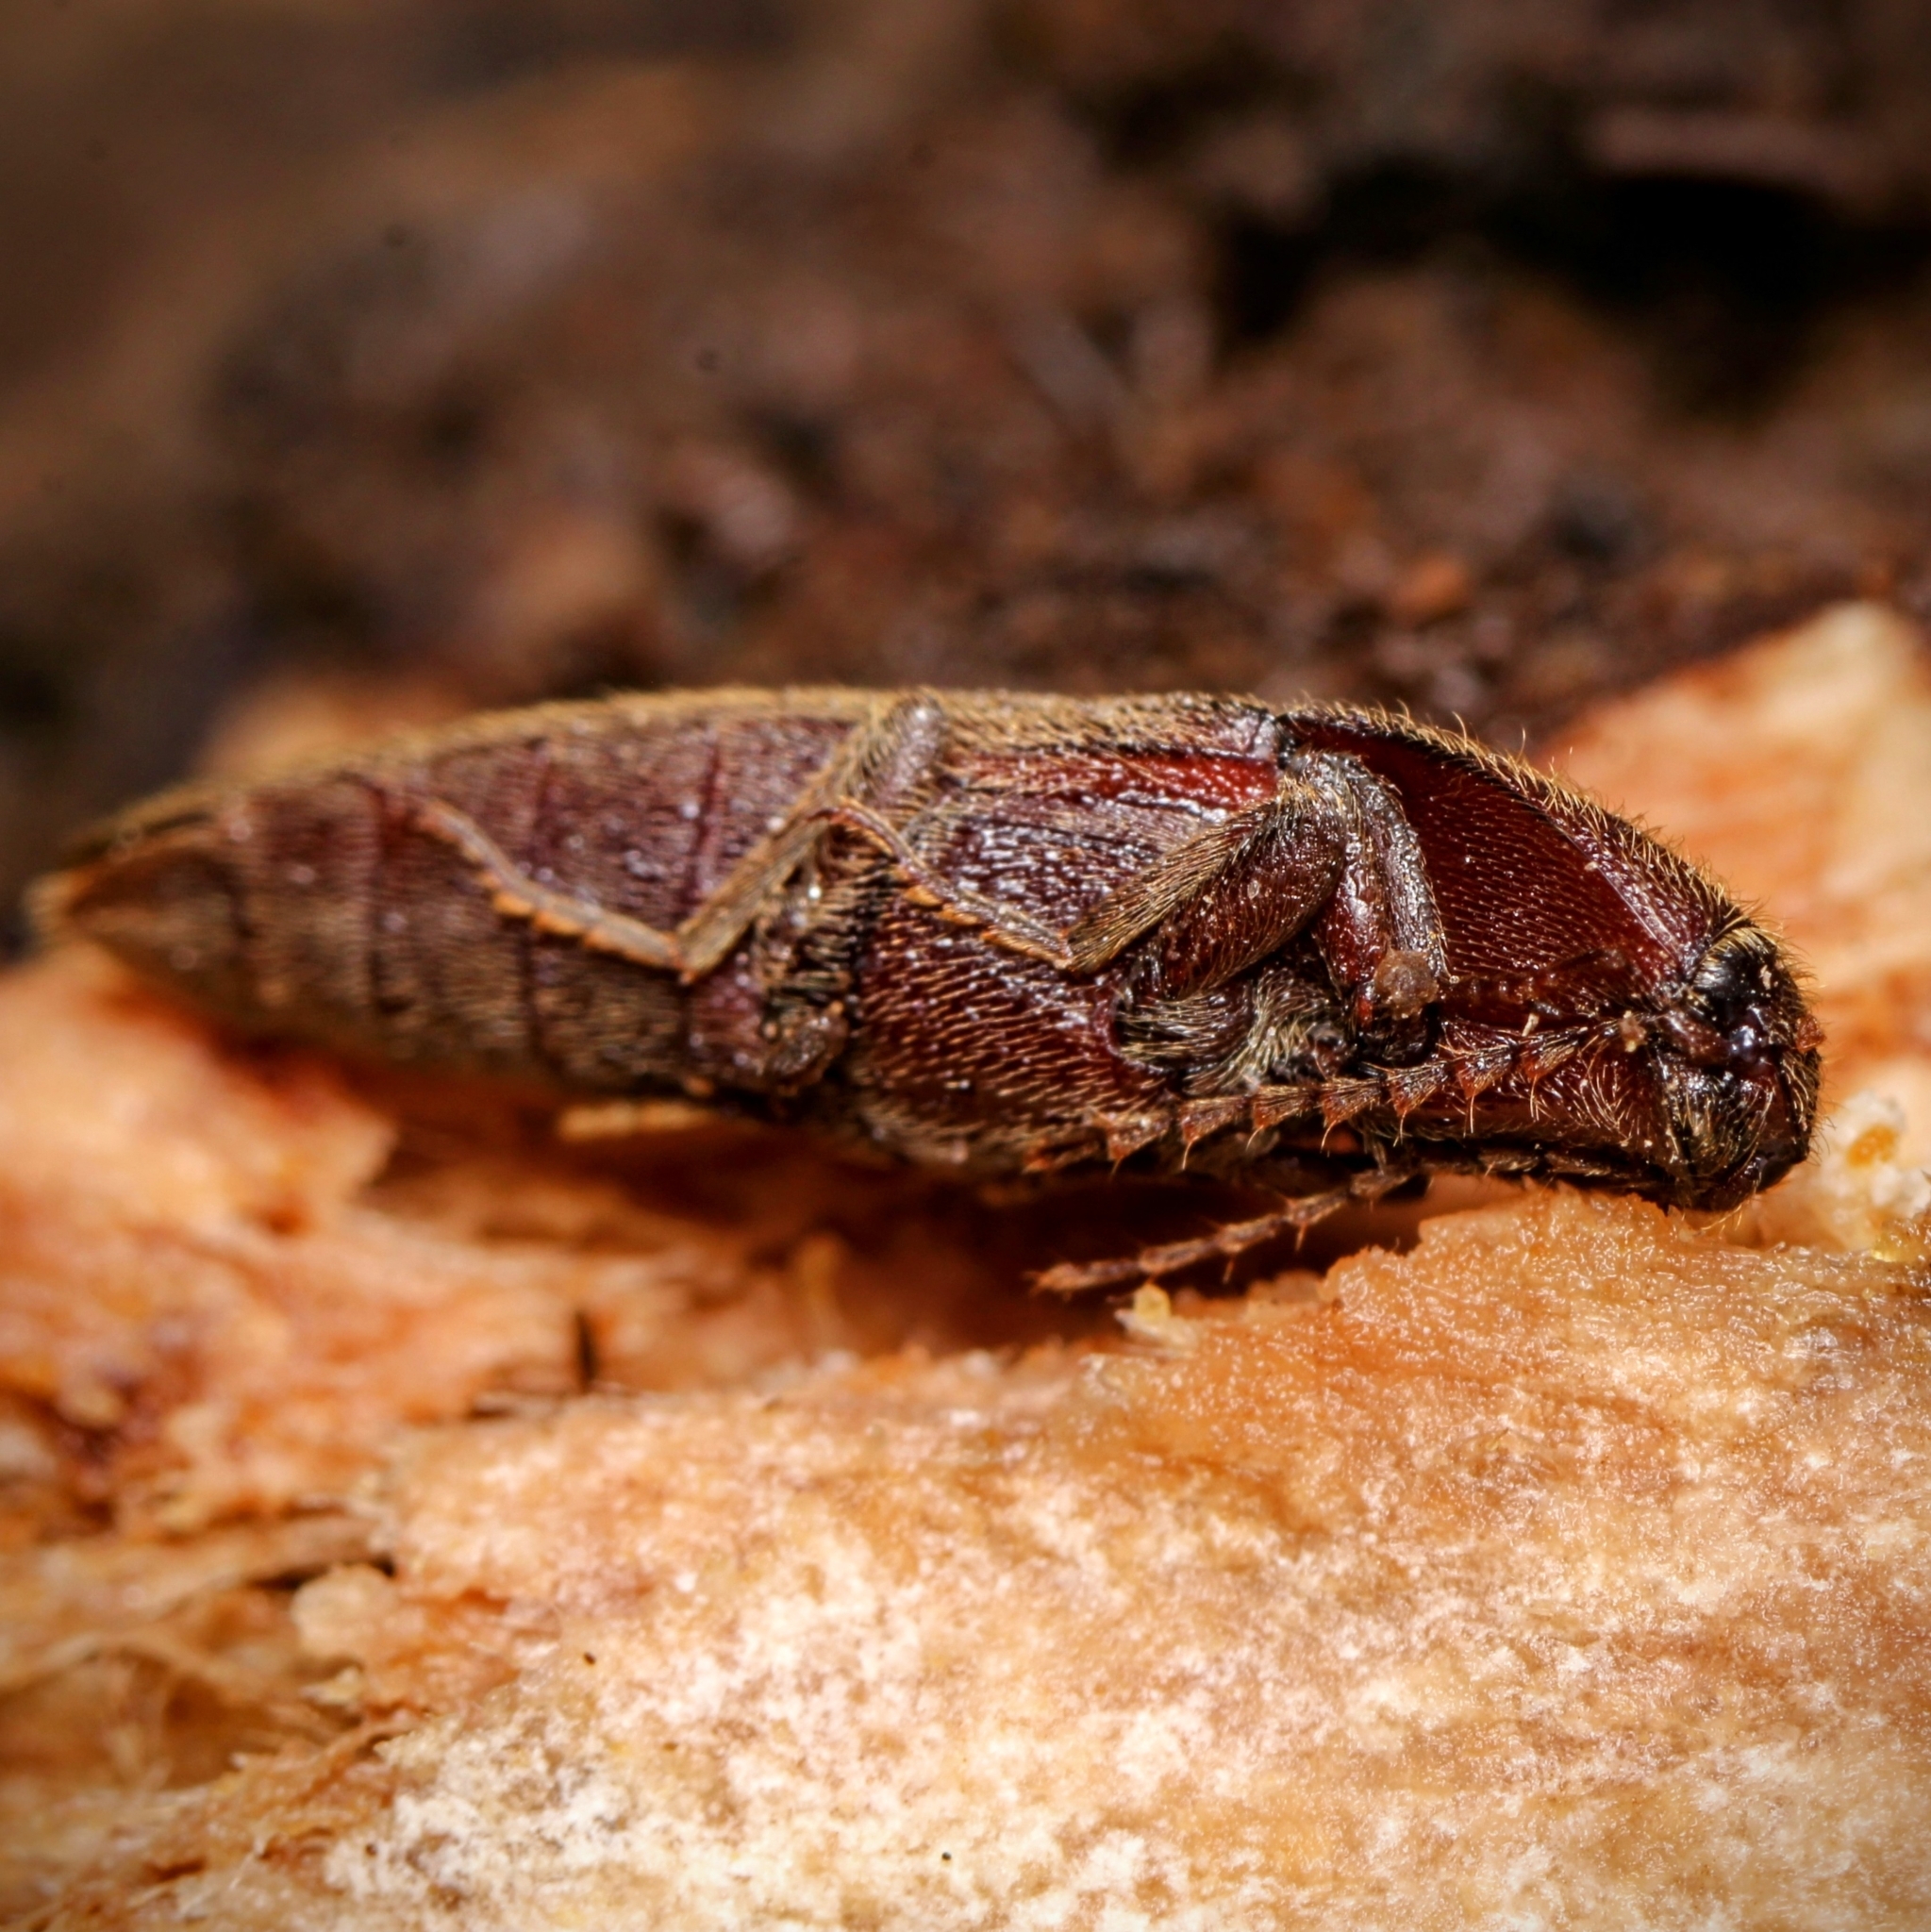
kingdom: Animalia
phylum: Arthropoda
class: Insecta
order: Coleoptera
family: Elateridae
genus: Melanotus
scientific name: Melanotus
